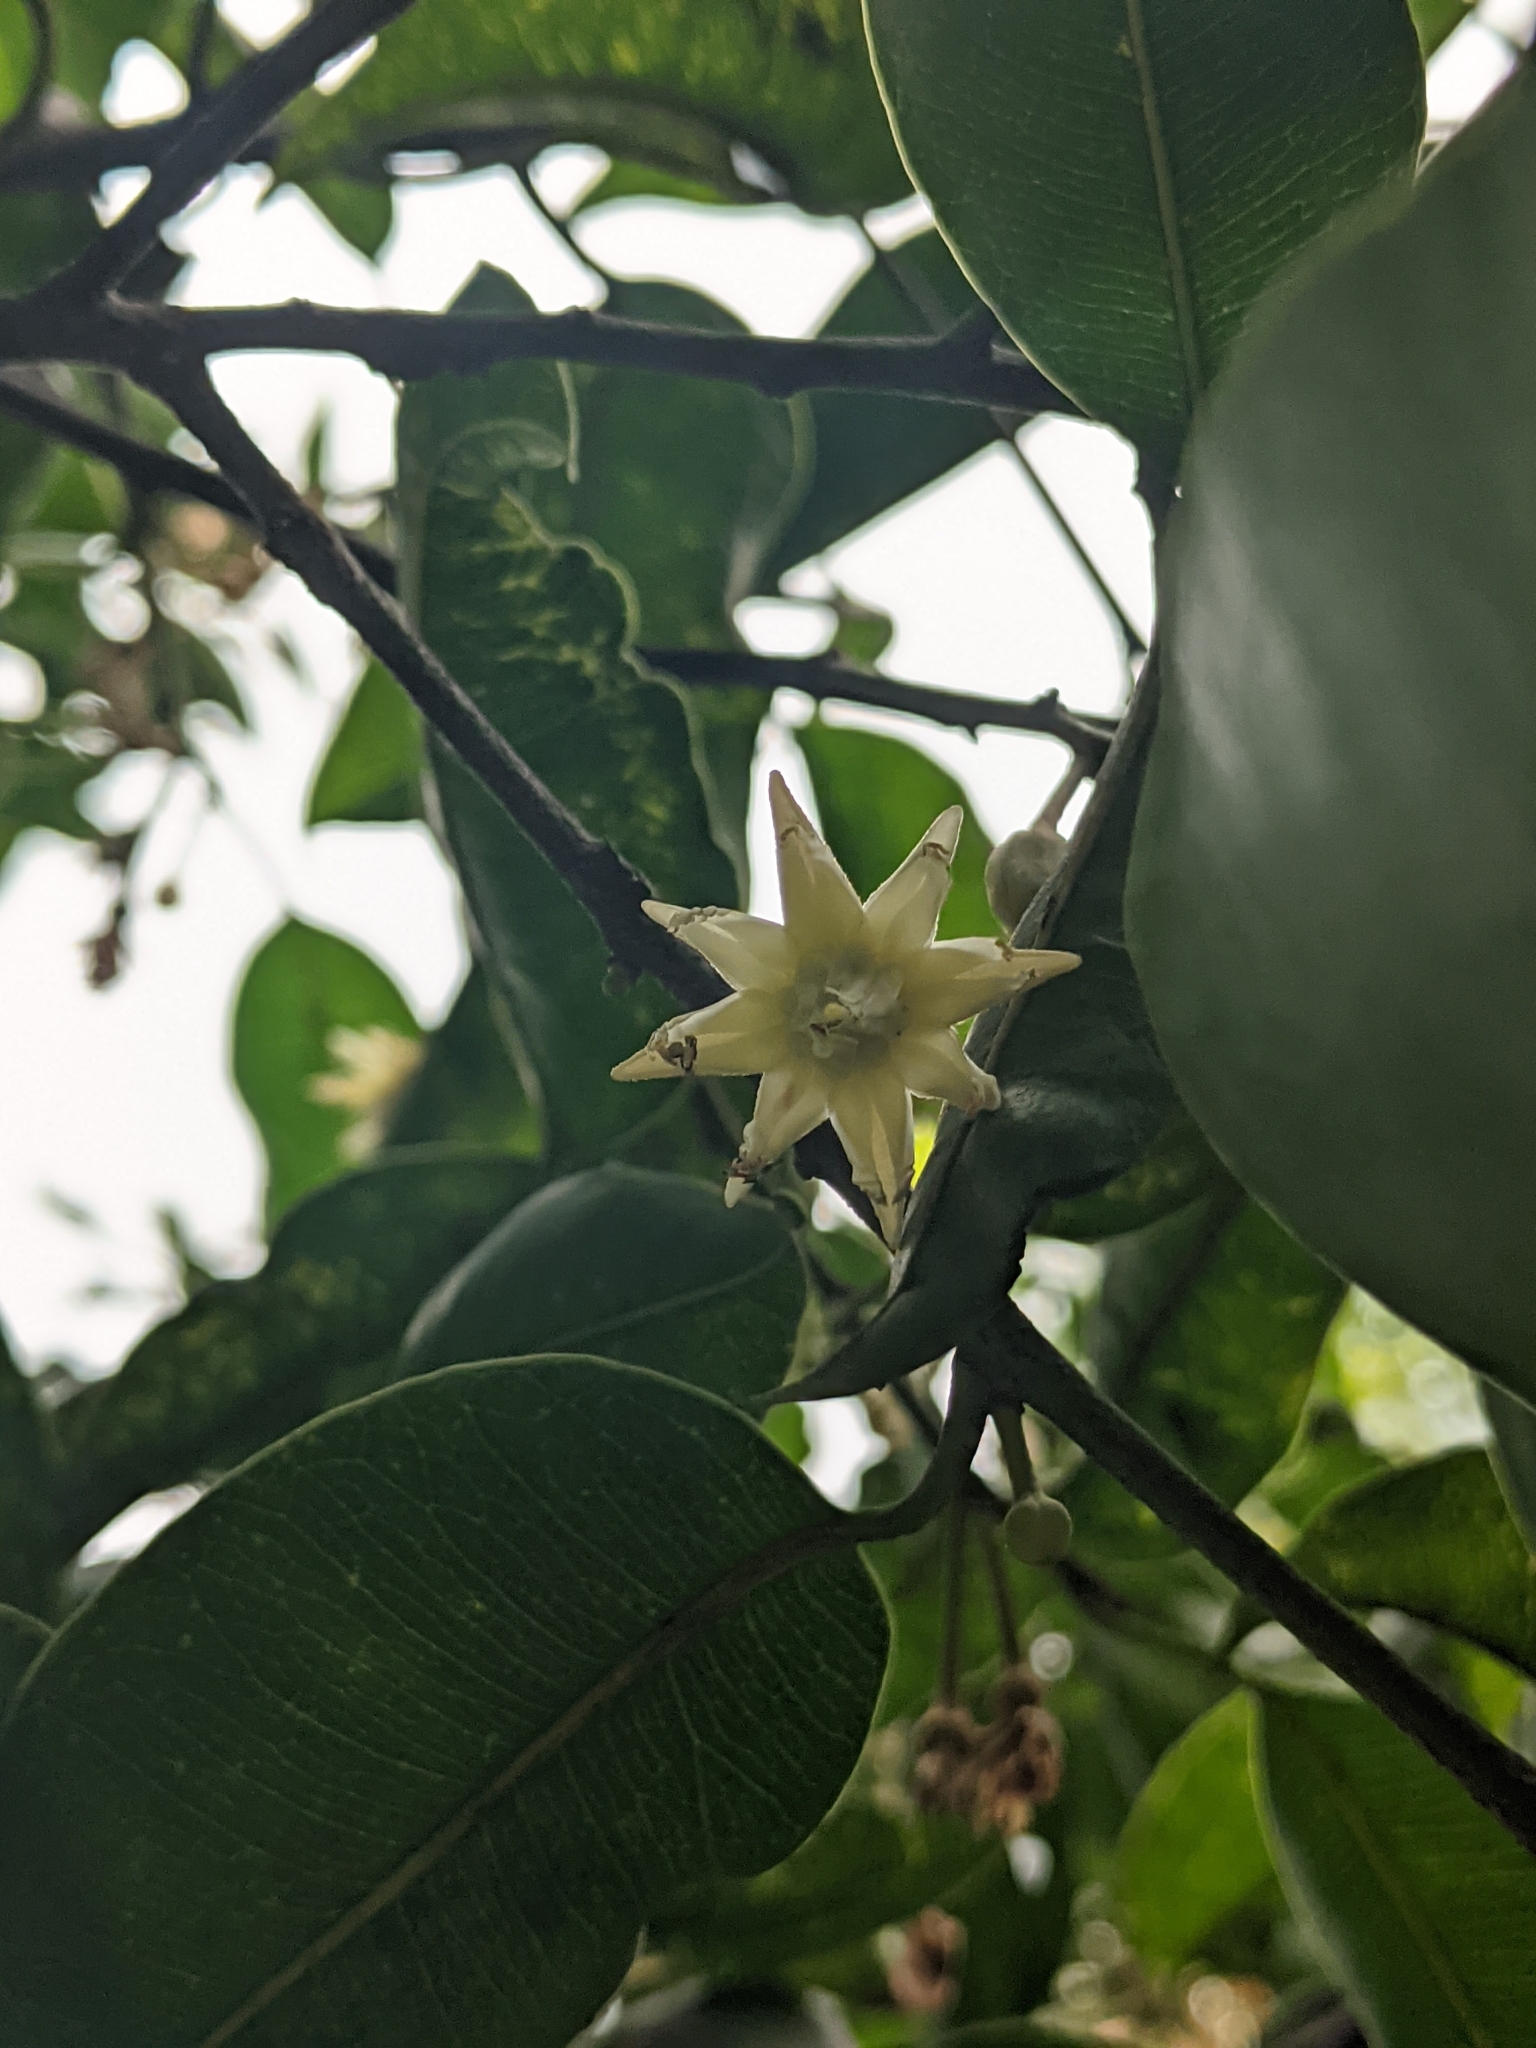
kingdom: Plantae
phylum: Tracheophyta
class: Magnoliopsida
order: Ericales
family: Sapotaceae
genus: Mimusops
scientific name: Mimusops elengi
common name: Spanish cherry
